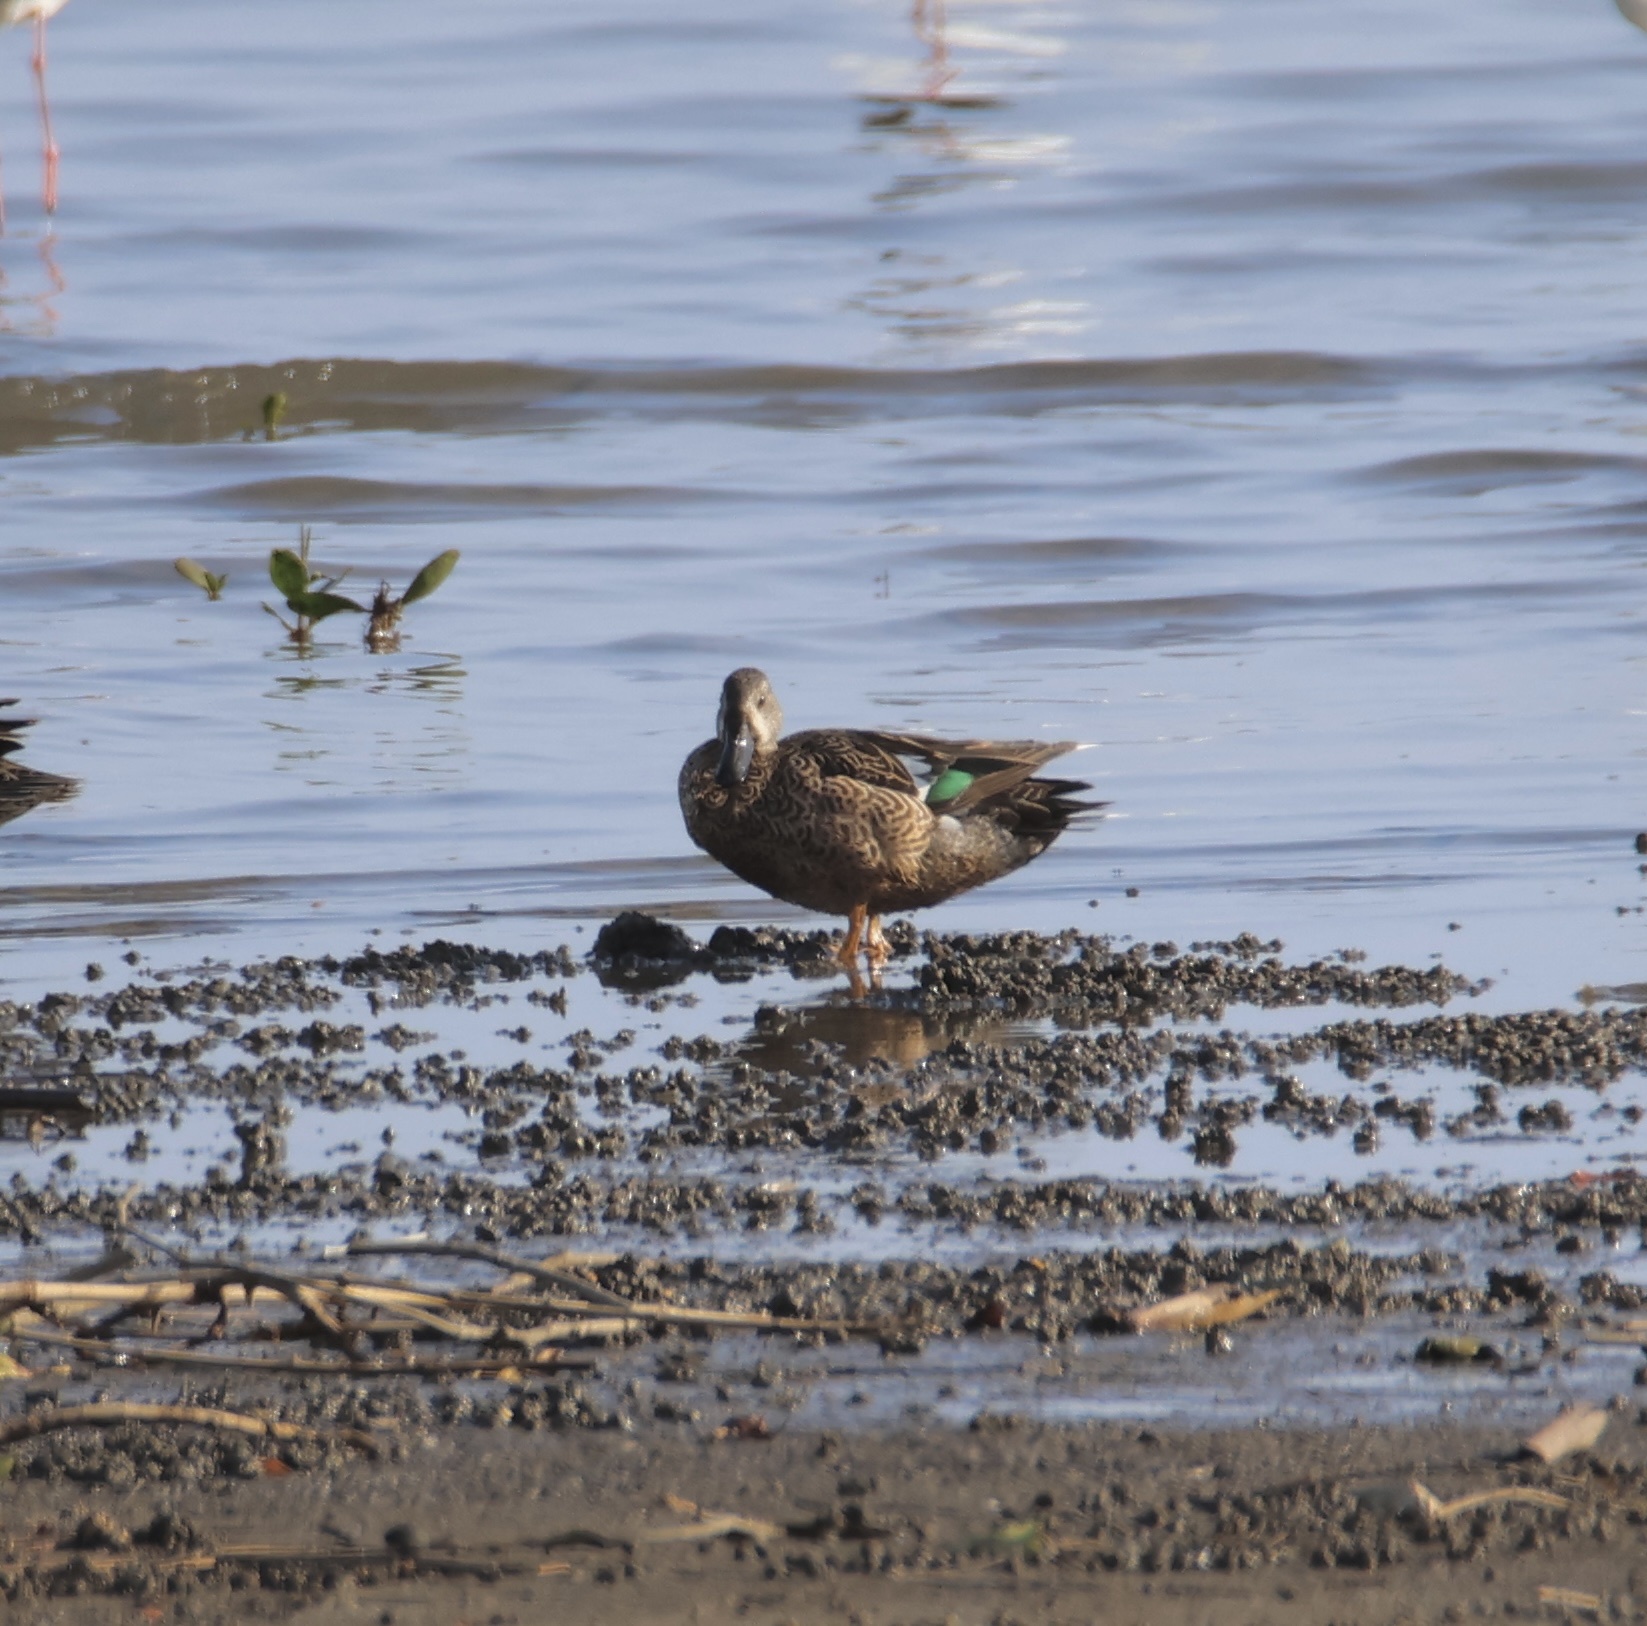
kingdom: Animalia
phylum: Chordata
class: Aves
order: Anseriformes
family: Anatidae
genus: Spatula
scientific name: Spatula discors
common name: Blue-winged teal
